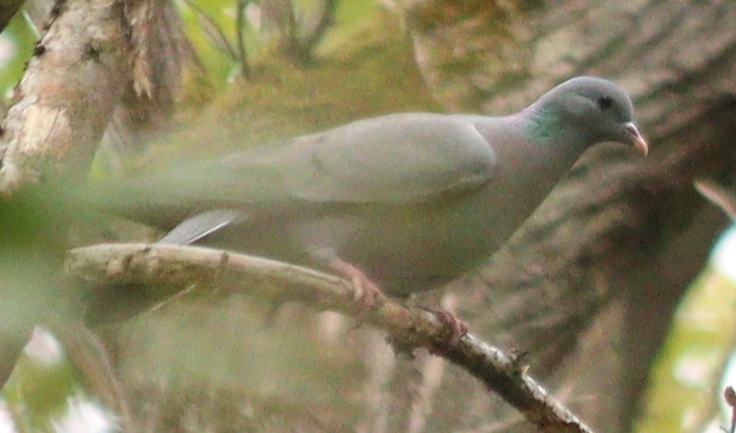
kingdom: Animalia
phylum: Chordata
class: Aves
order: Columbiformes
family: Columbidae
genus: Columba
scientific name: Columba oenas
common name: Stock dove
